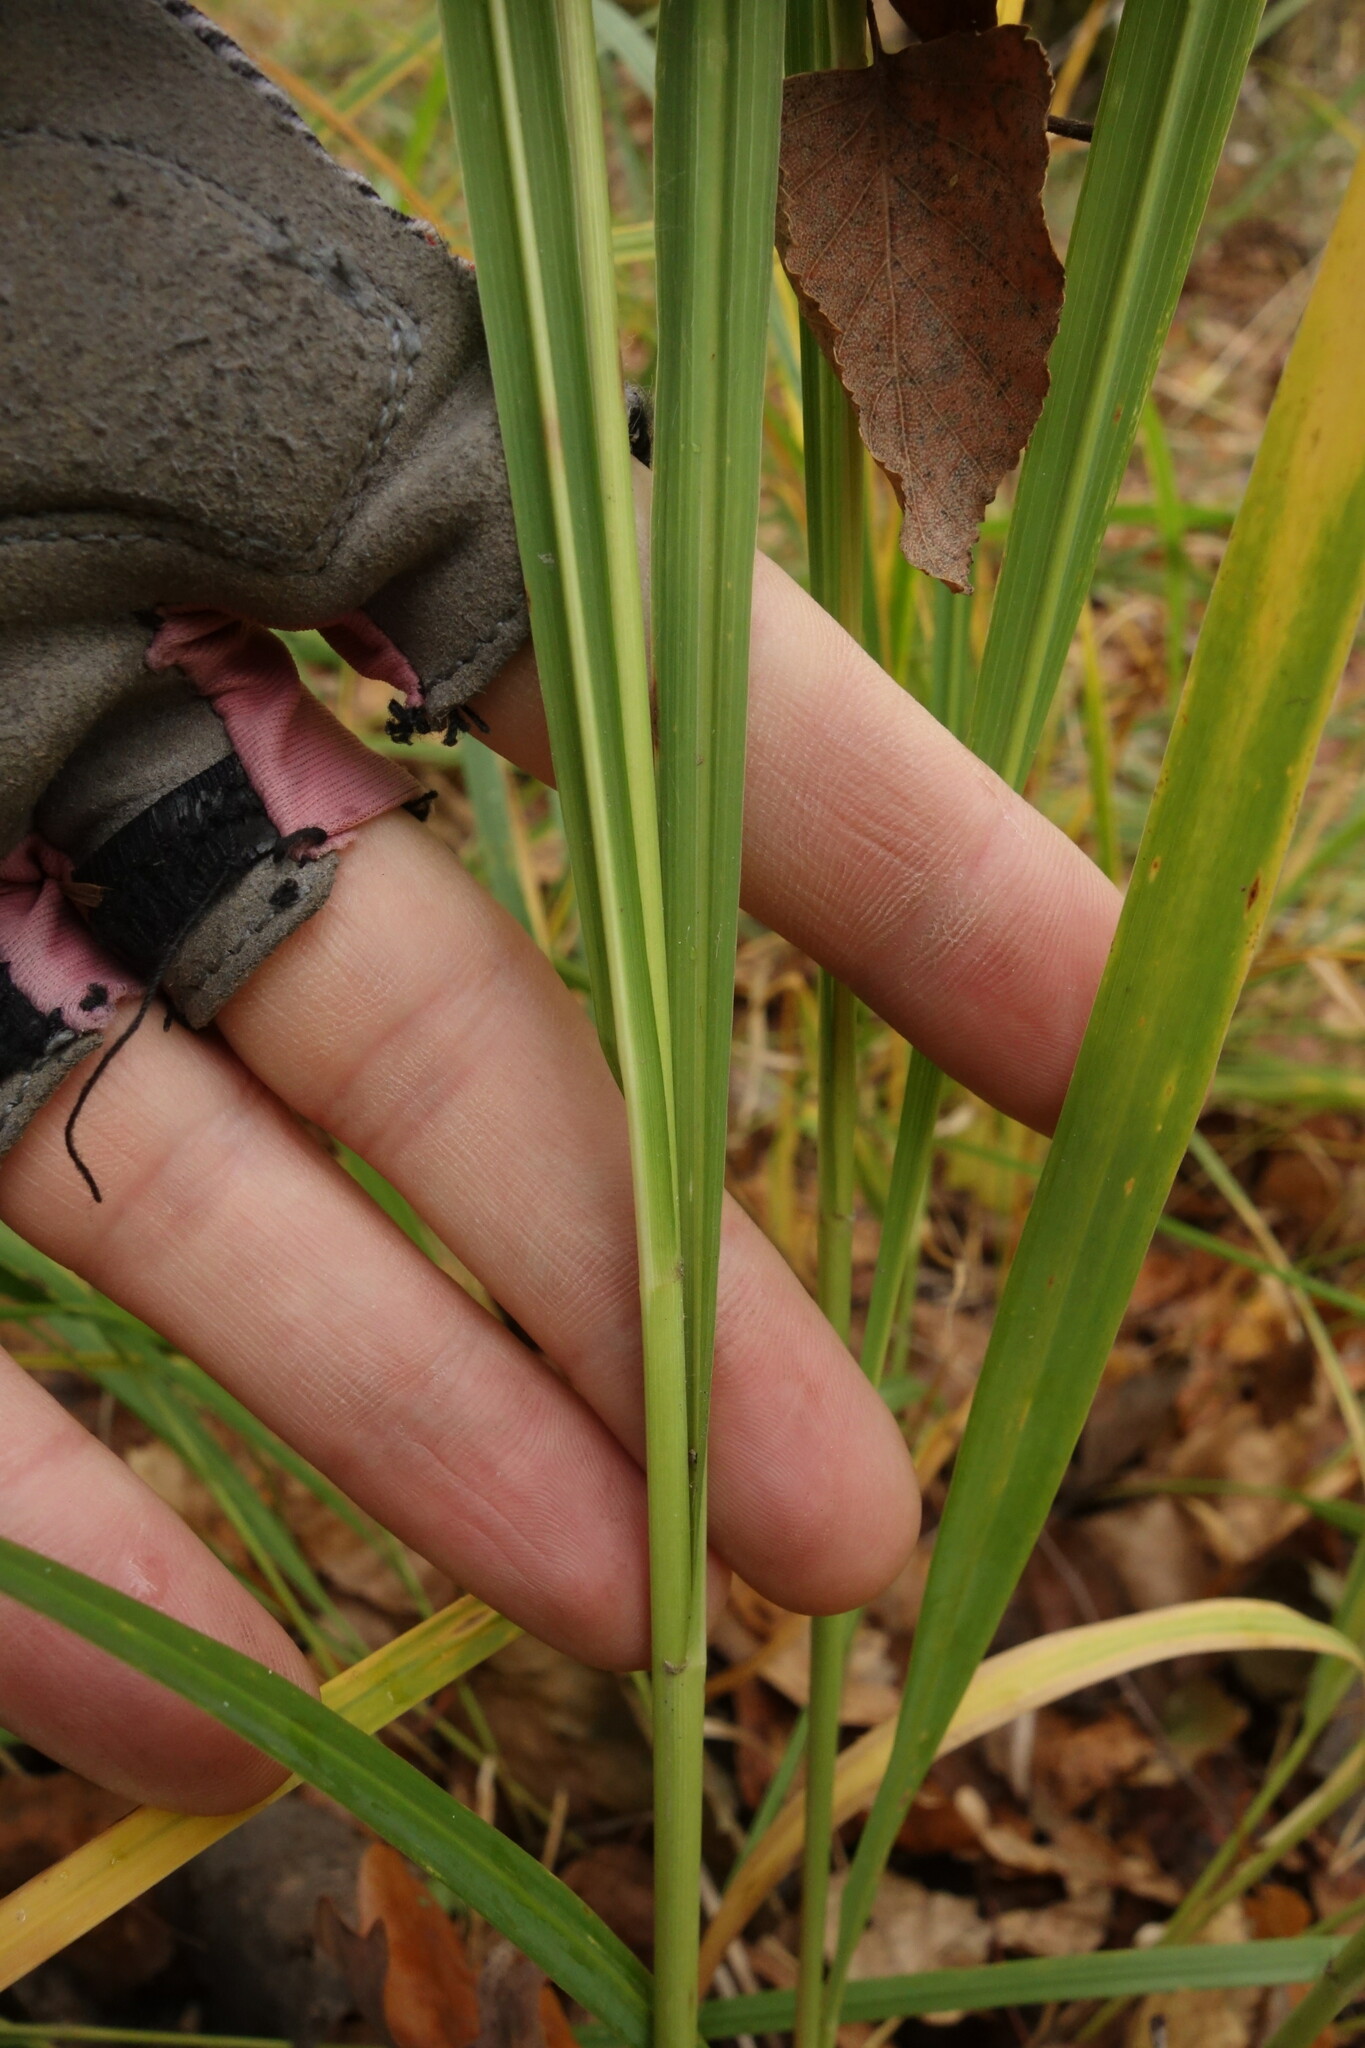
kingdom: Plantae
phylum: Tracheophyta
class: Liliopsida
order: Poales
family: Poaceae
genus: Molinia
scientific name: Molinia caerulea
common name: Purple moor-grass
